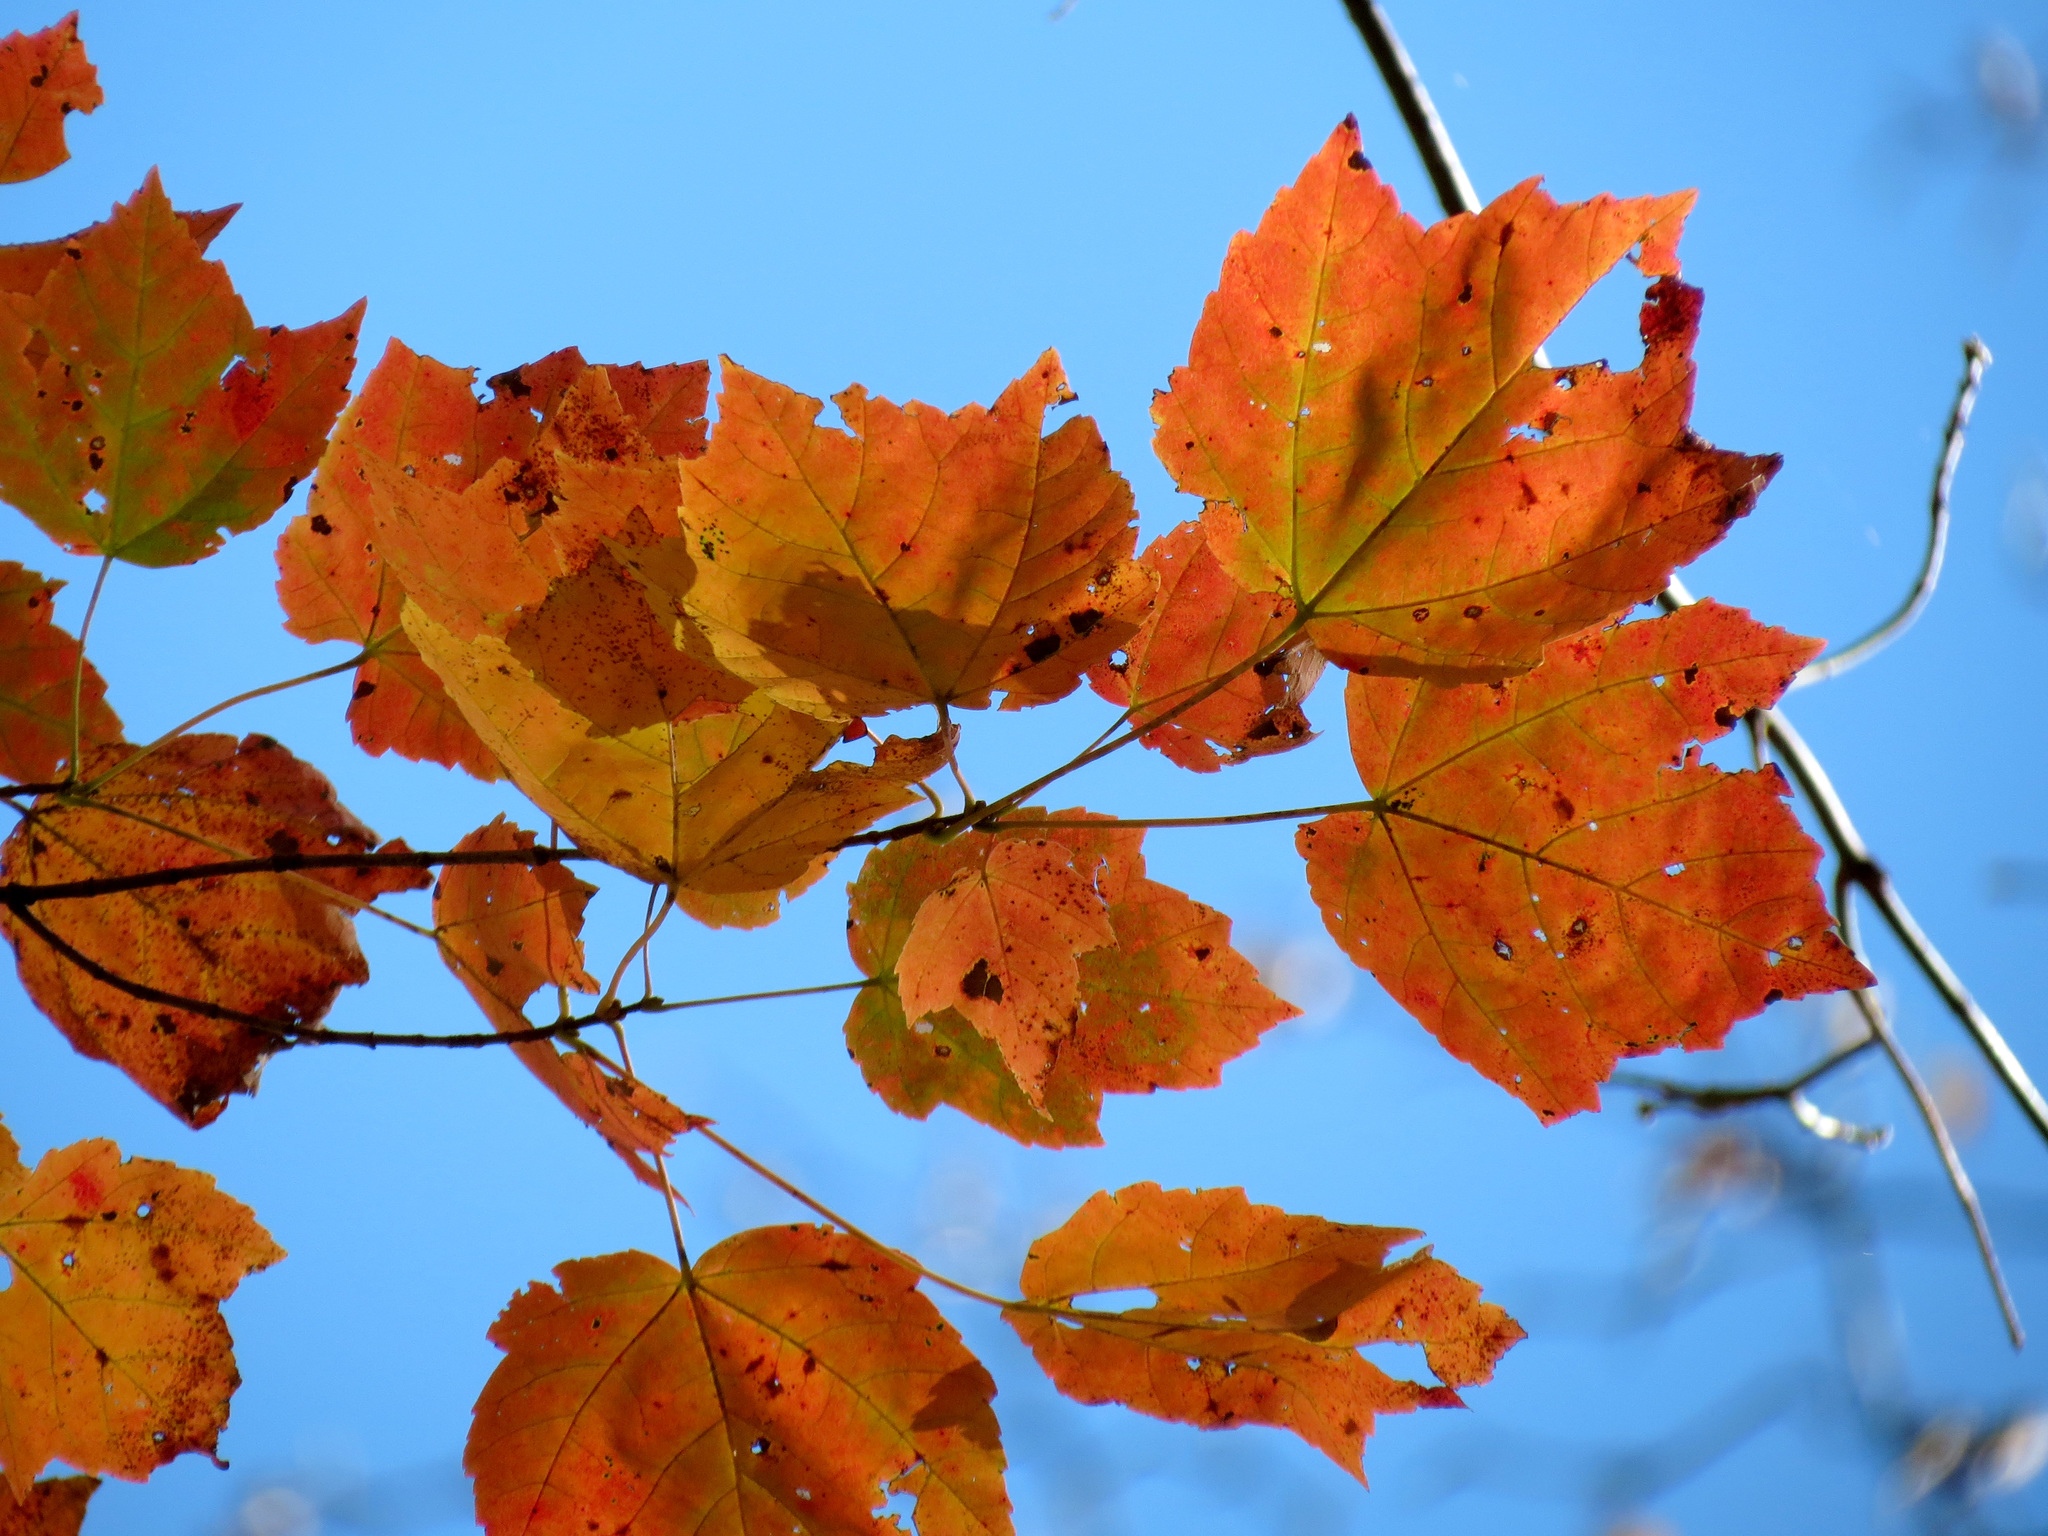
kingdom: Plantae
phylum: Tracheophyta
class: Magnoliopsida
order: Sapindales
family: Sapindaceae
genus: Acer
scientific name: Acer rubrum
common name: Red maple
